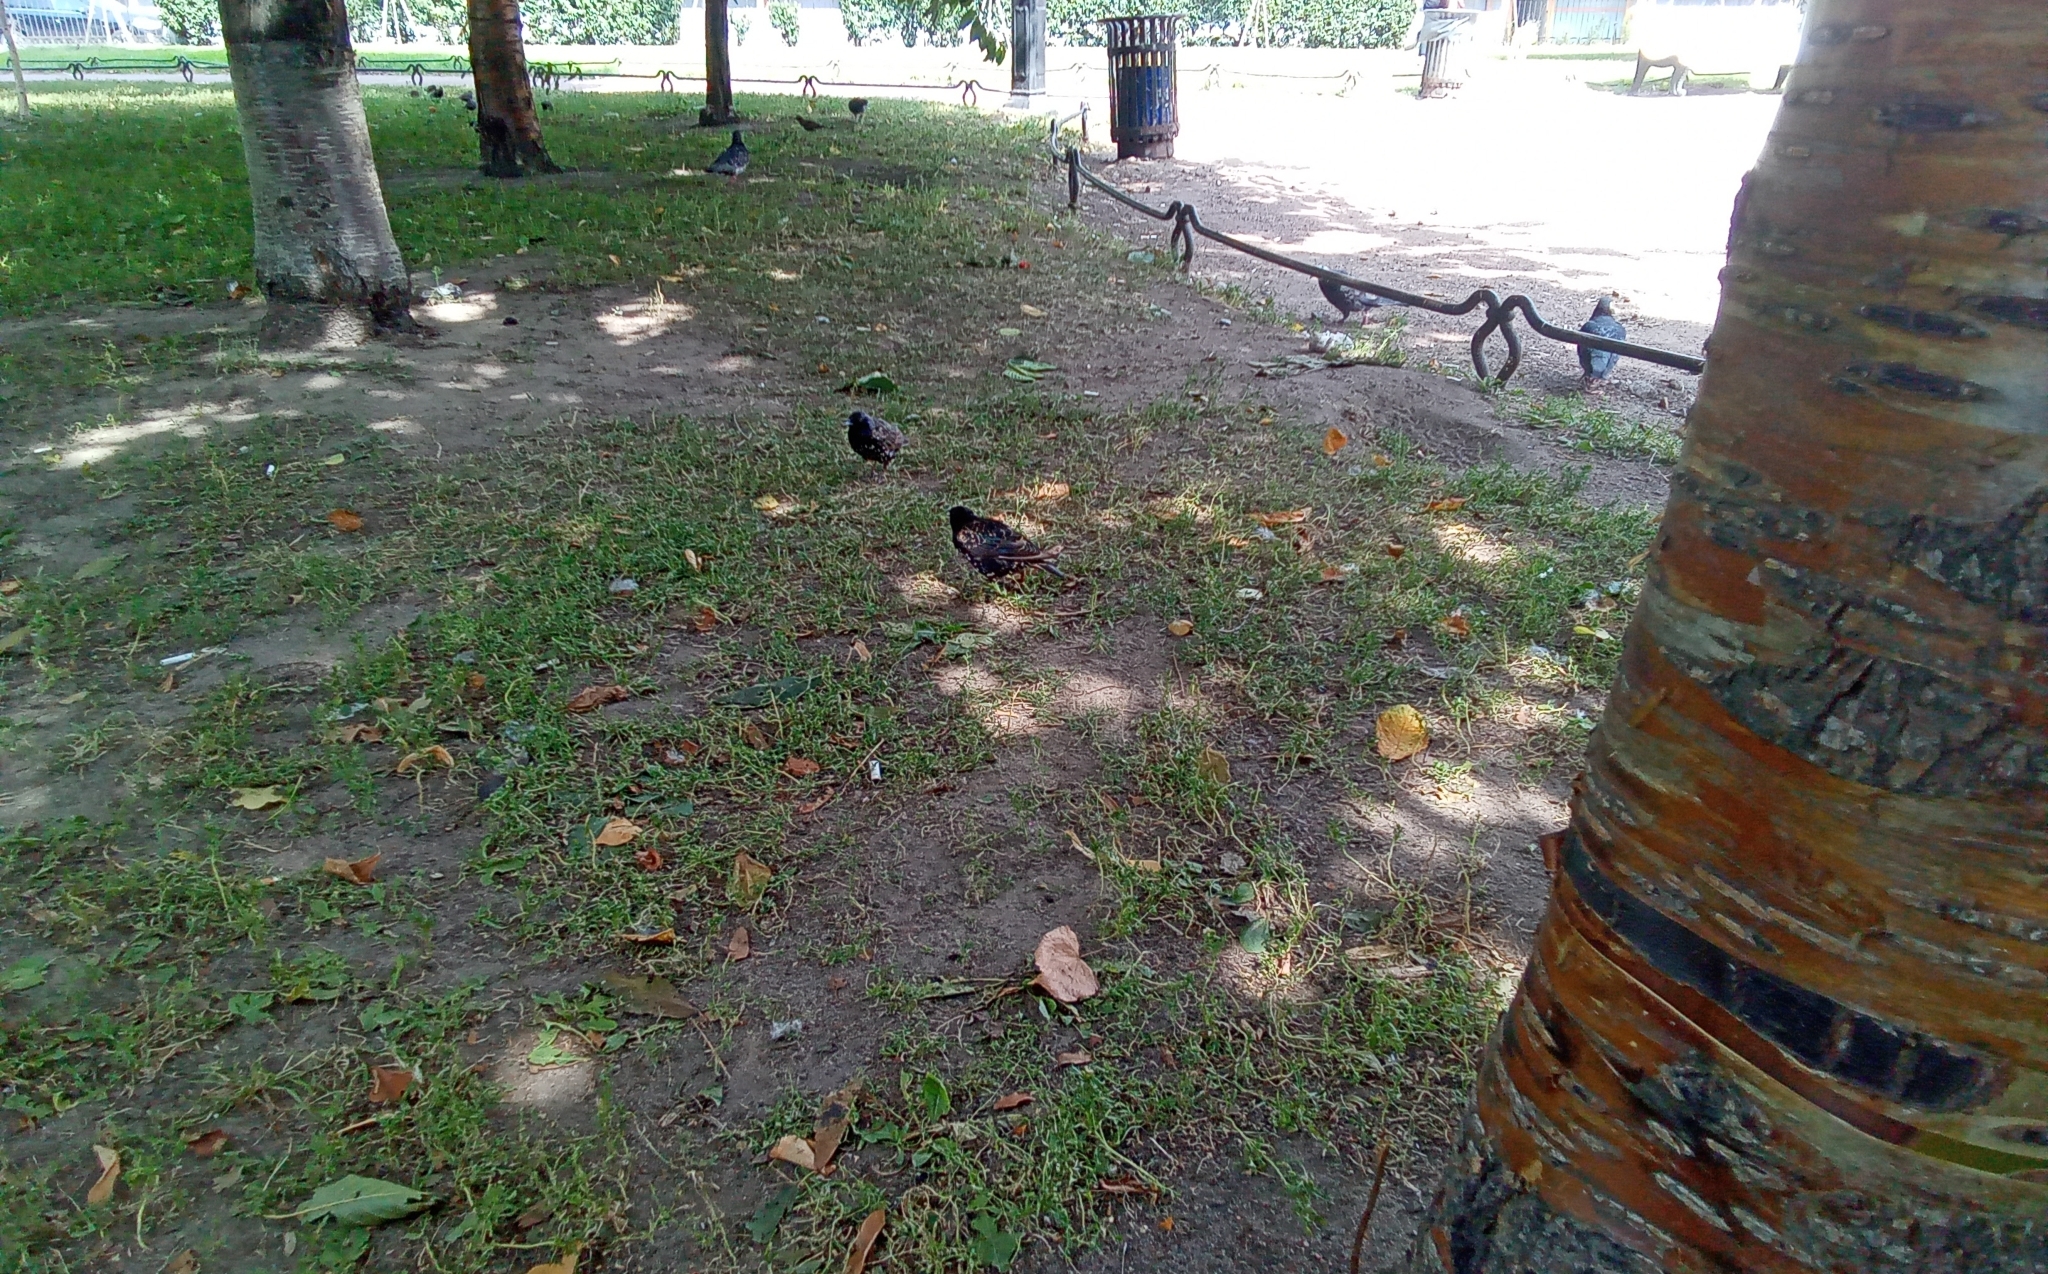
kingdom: Animalia
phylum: Chordata
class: Aves
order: Passeriformes
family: Sturnidae
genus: Sturnus
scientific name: Sturnus vulgaris
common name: Common starling
